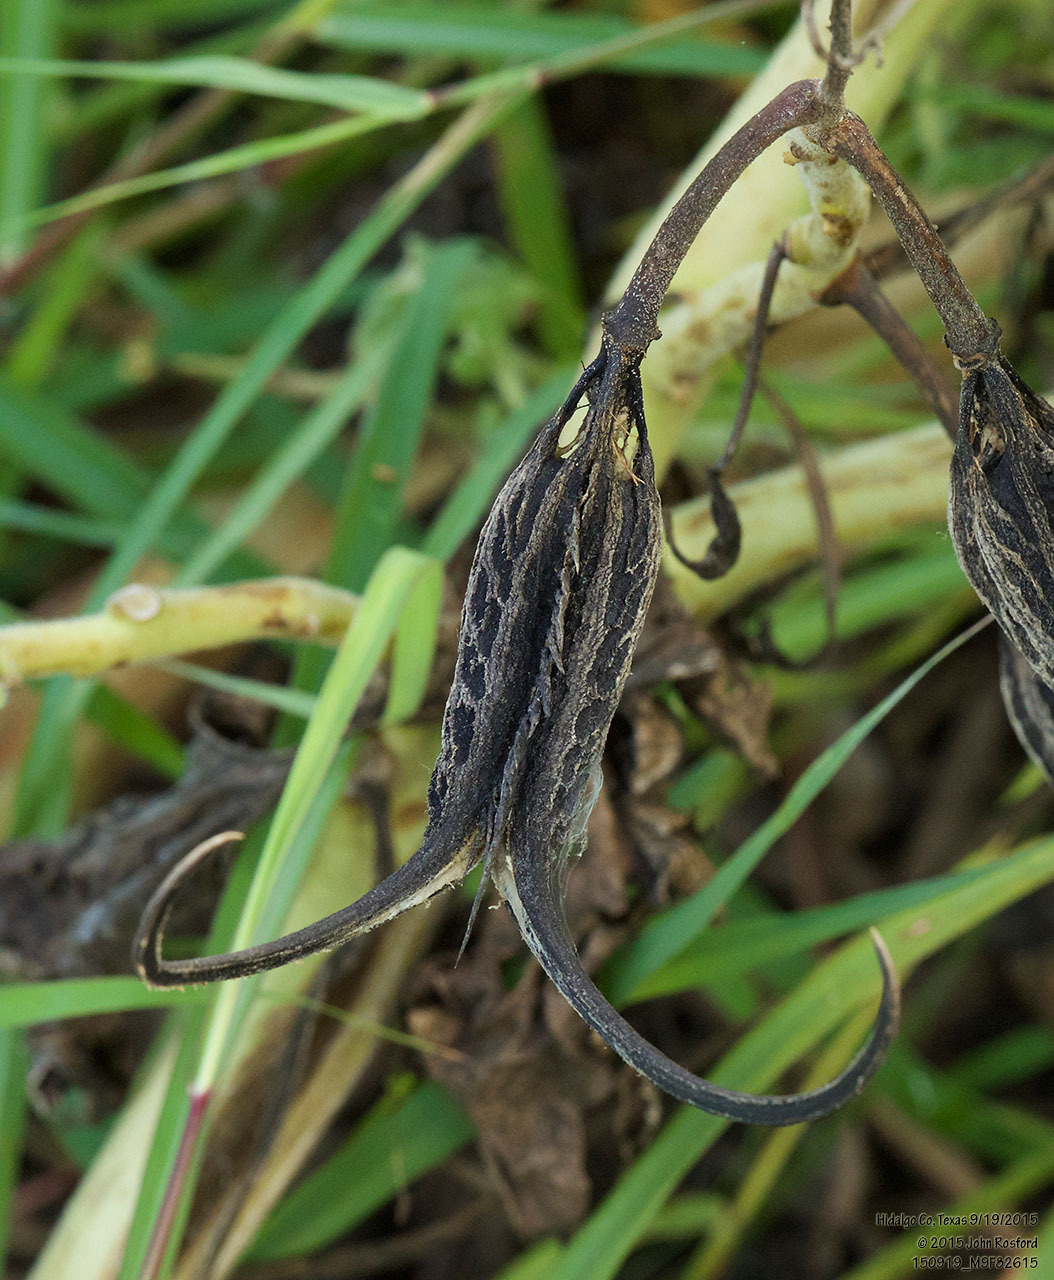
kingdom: Plantae
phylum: Tracheophyta
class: Magnoliopsida
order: Lamiales
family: Martyniaceae
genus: Proboscidea
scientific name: Proboscidea louisianica
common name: Elephant tusks
